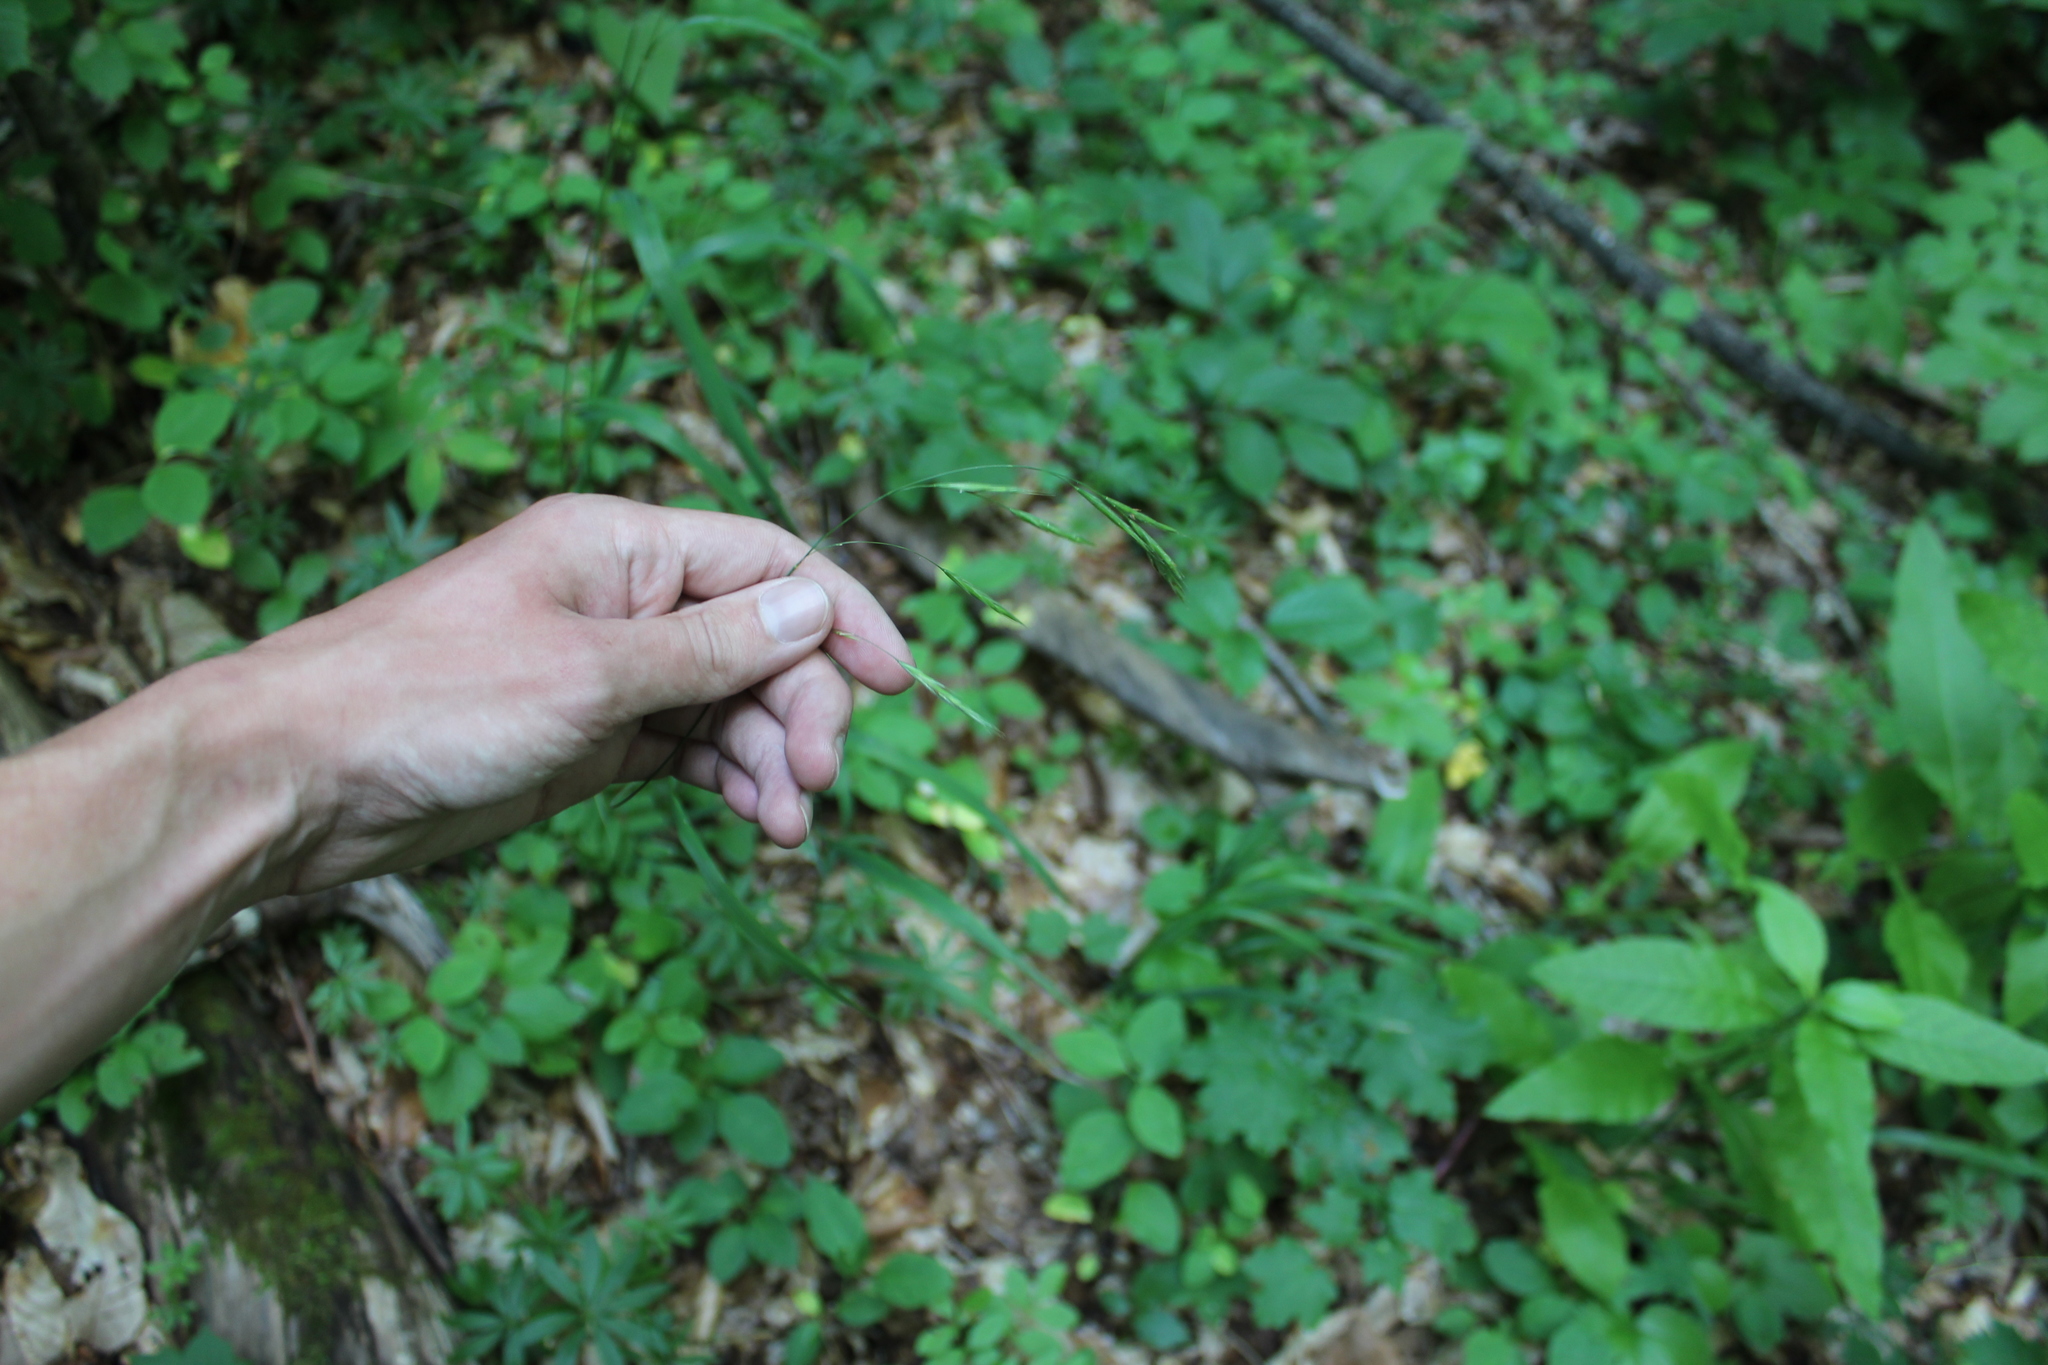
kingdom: Plantae
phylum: Tracheophyta
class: Liliopsida
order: Poales
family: Poaceae
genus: Lolium
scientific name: Lolium giganteum
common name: Giant fescue
